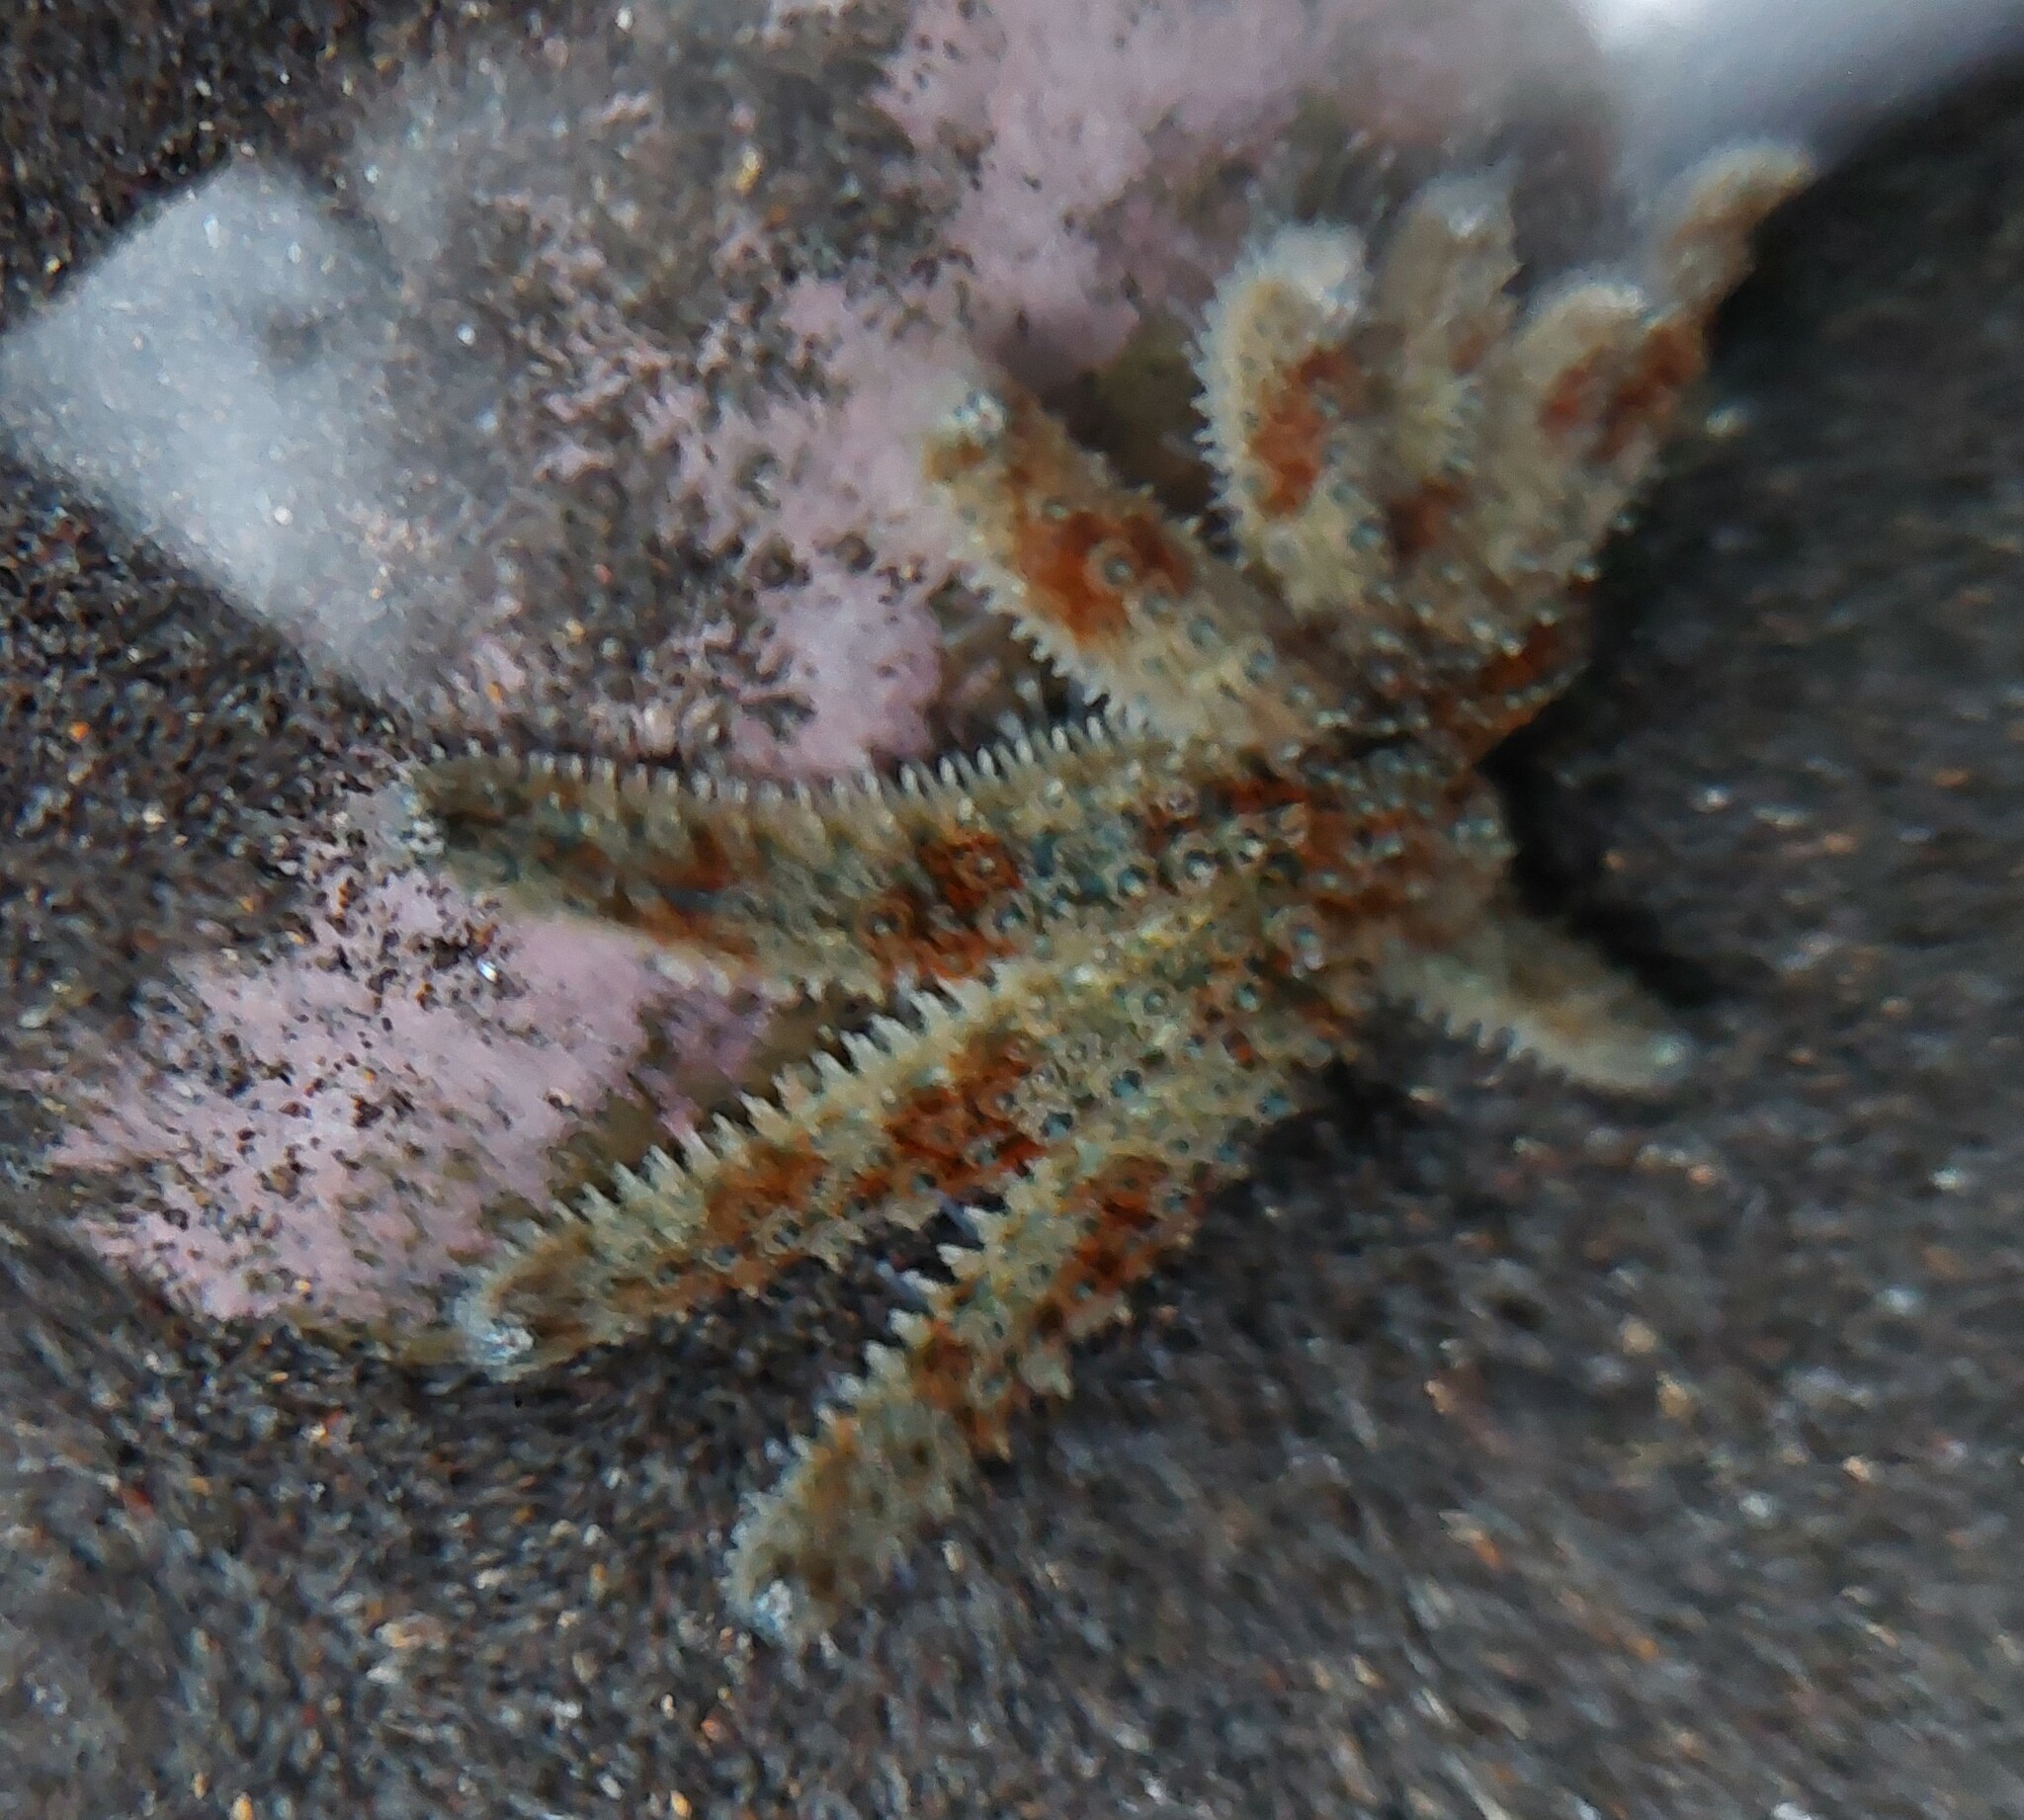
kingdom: Animalia
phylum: Echinodermata
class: Asteroidea
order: Forcipulatida
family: Asteriidae
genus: Coscinasterias
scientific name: Coscinasterias muricata
